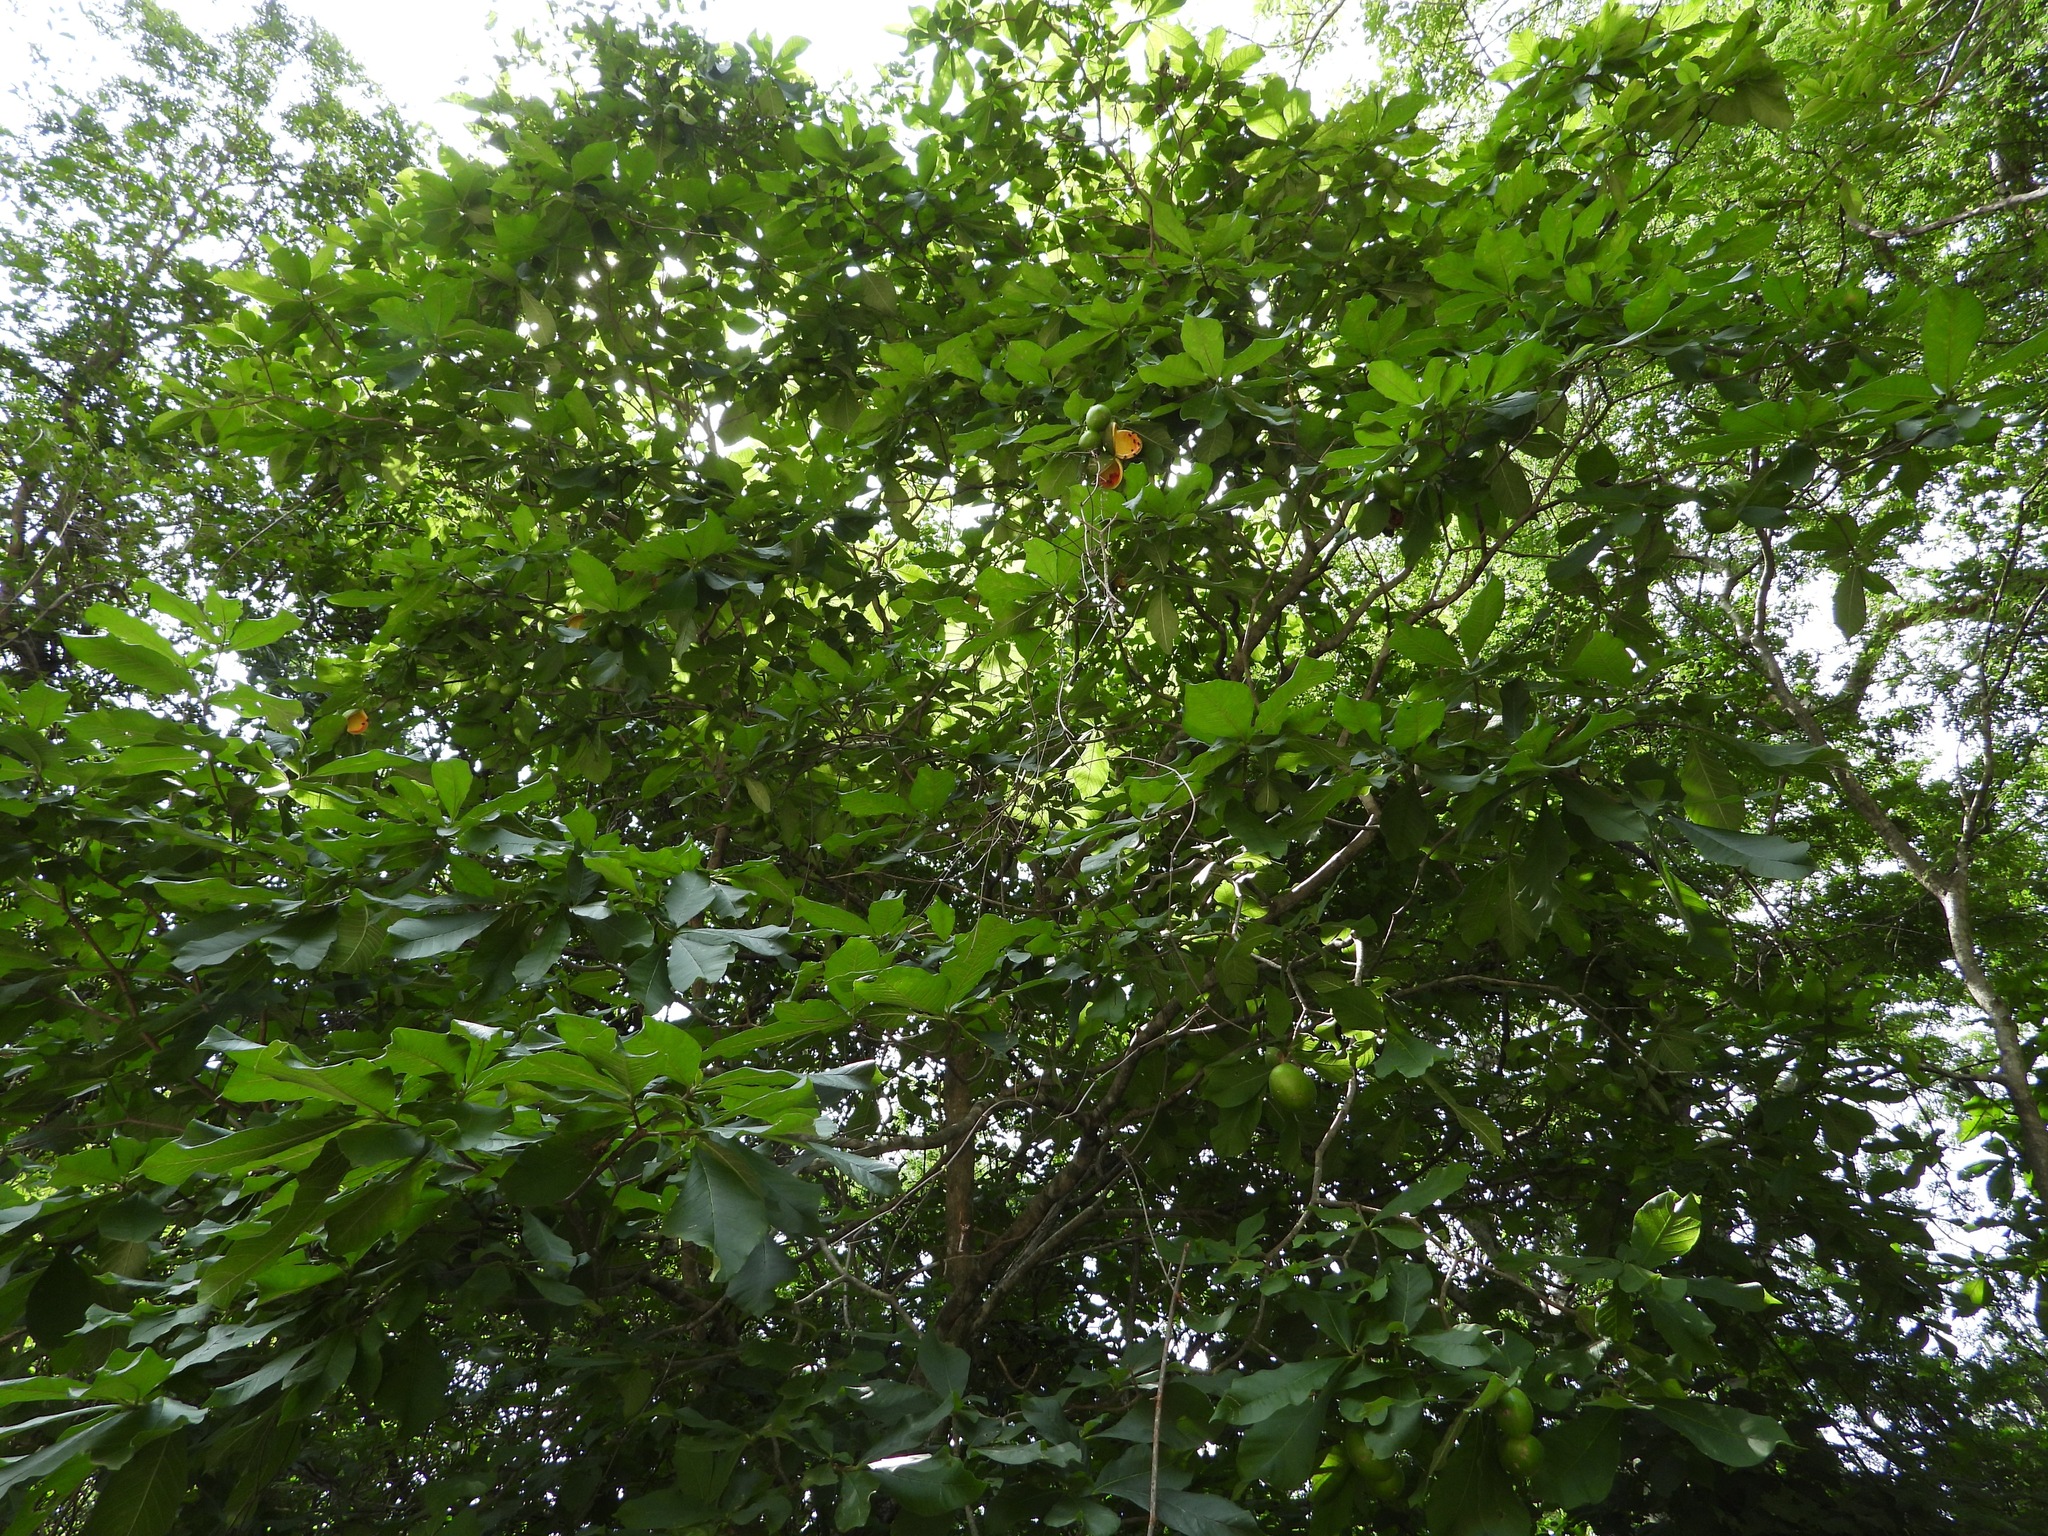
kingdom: Plantae
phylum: Tracheophyta
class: Magnoliopsida
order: Gentianales
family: Apocynaceae
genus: Tabernaemontana
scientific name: Tabernaemontana glabra
